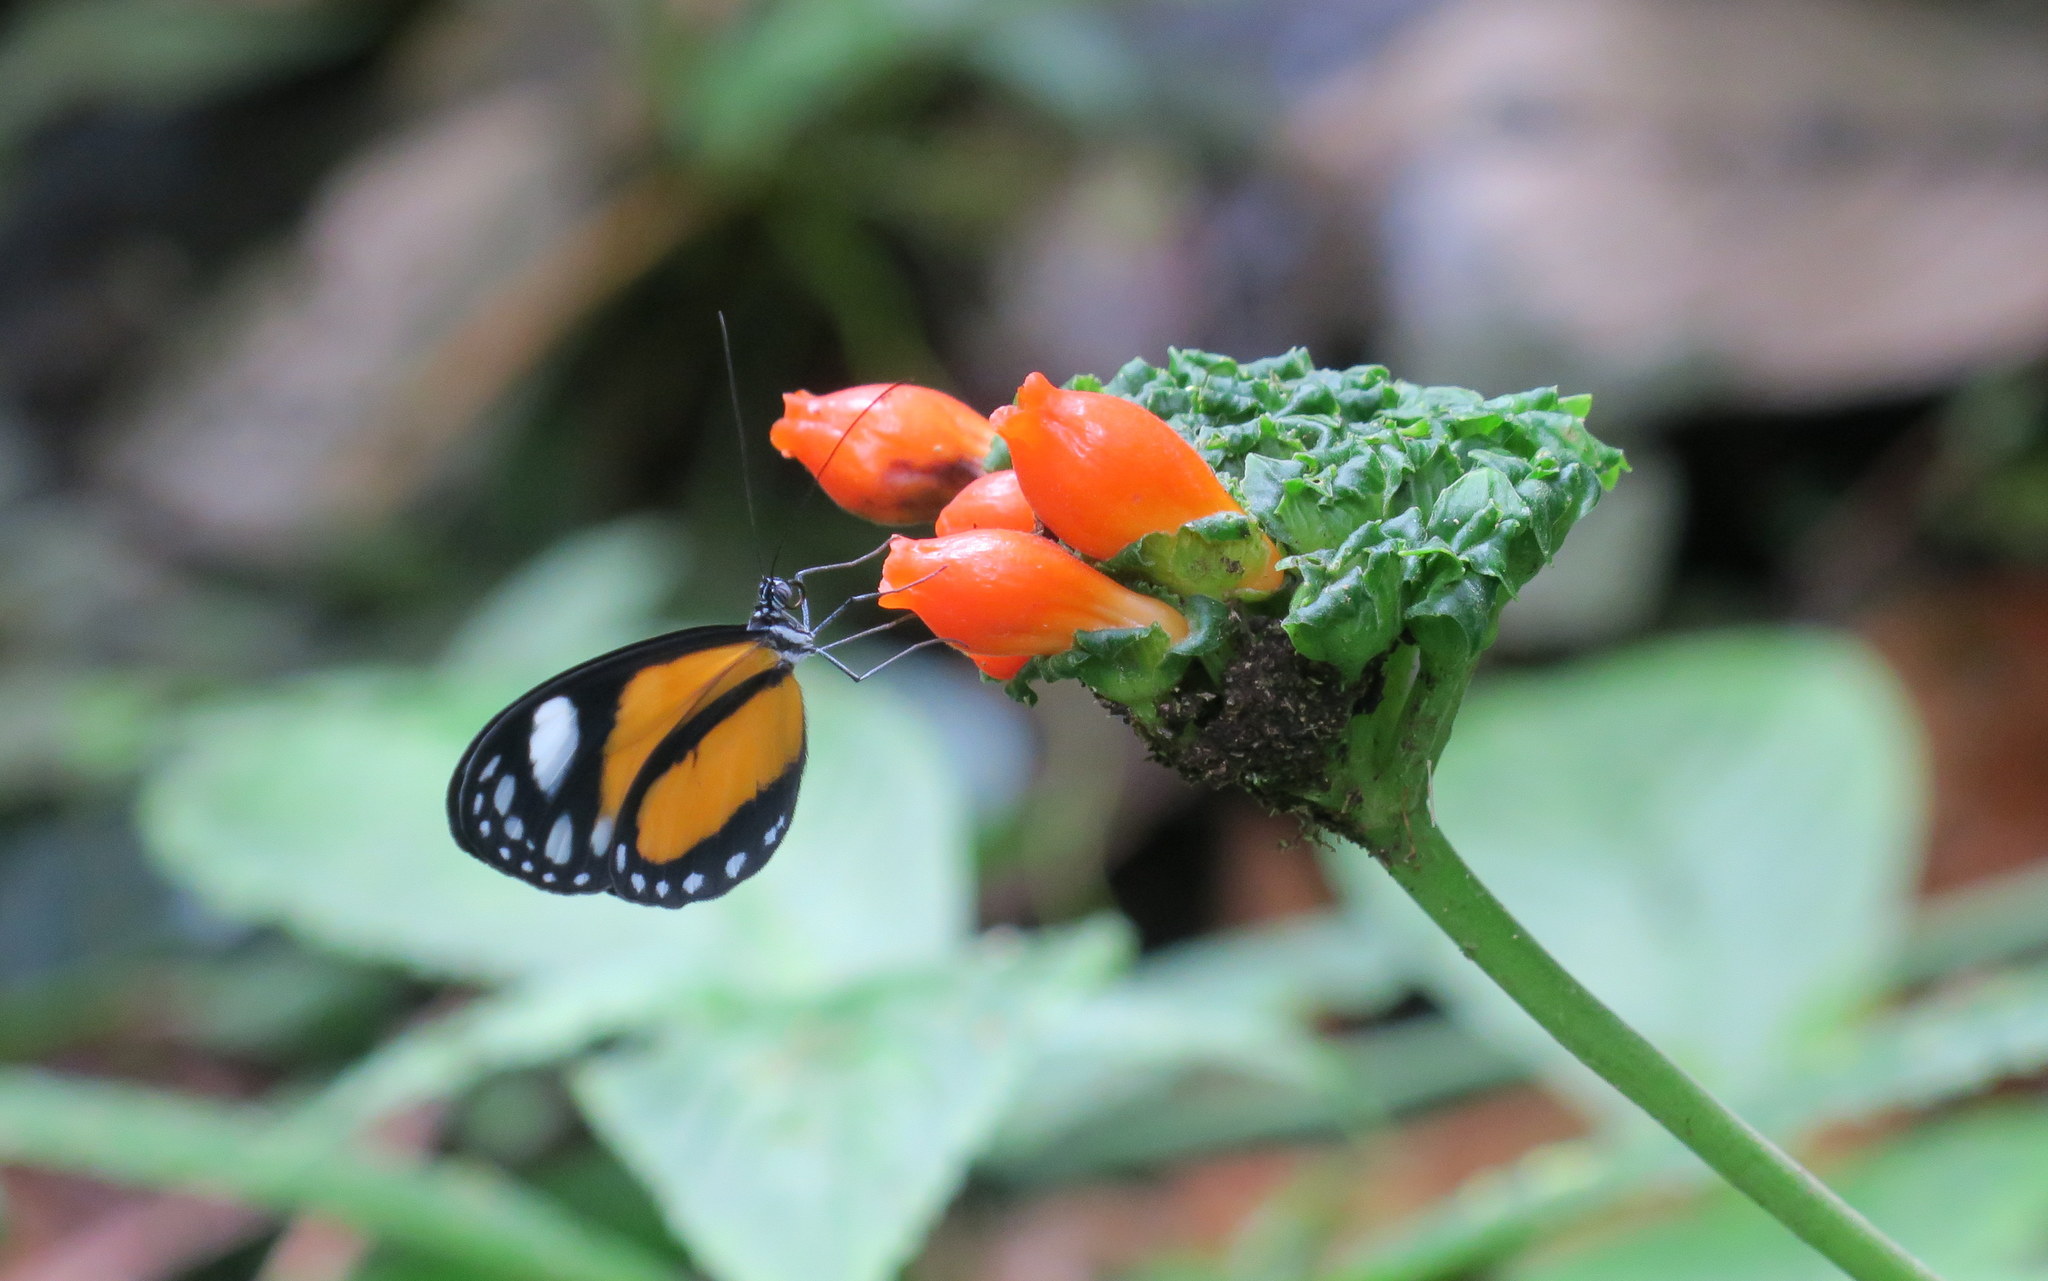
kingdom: Animalia
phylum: Arthropoda
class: Insecta
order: Lepidoptera
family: Nymphalidae
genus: Hyposcada
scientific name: Hyposcada illinissa
